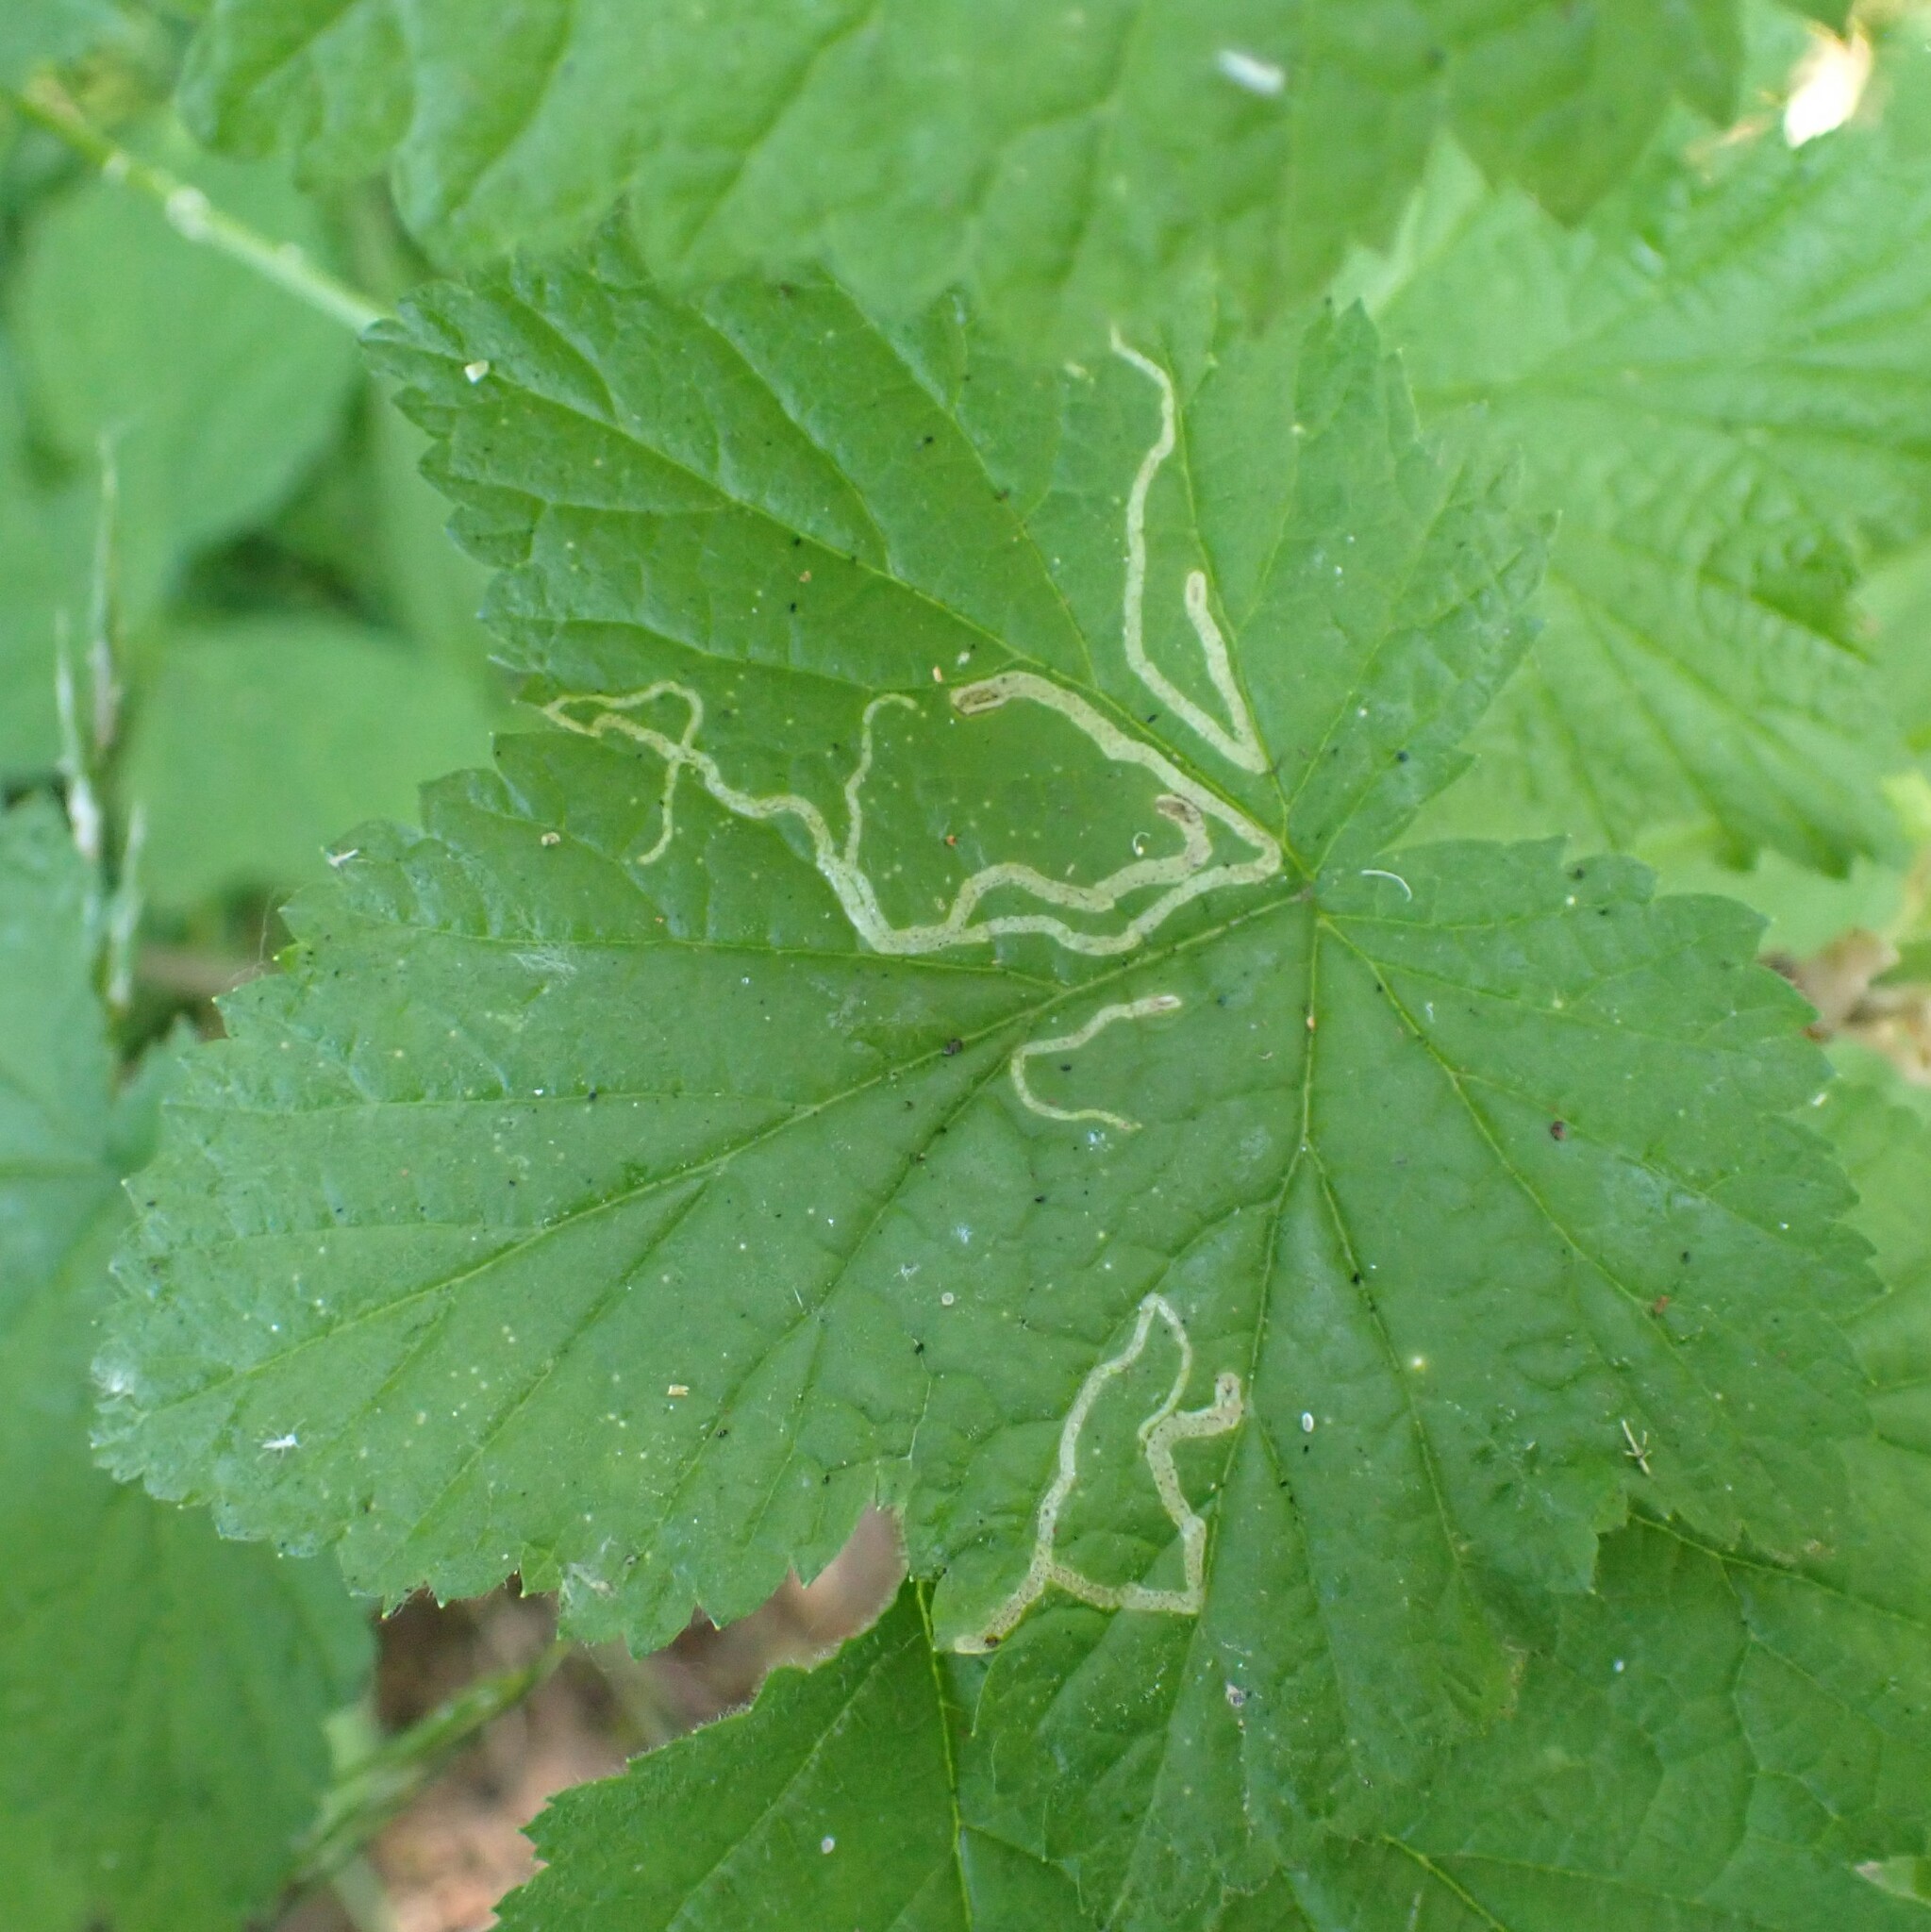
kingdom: Animalia
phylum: Arthropoda
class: Insecta
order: Diptera
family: Agromyzidae
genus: Agromyza
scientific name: Agromyza vockerothi
